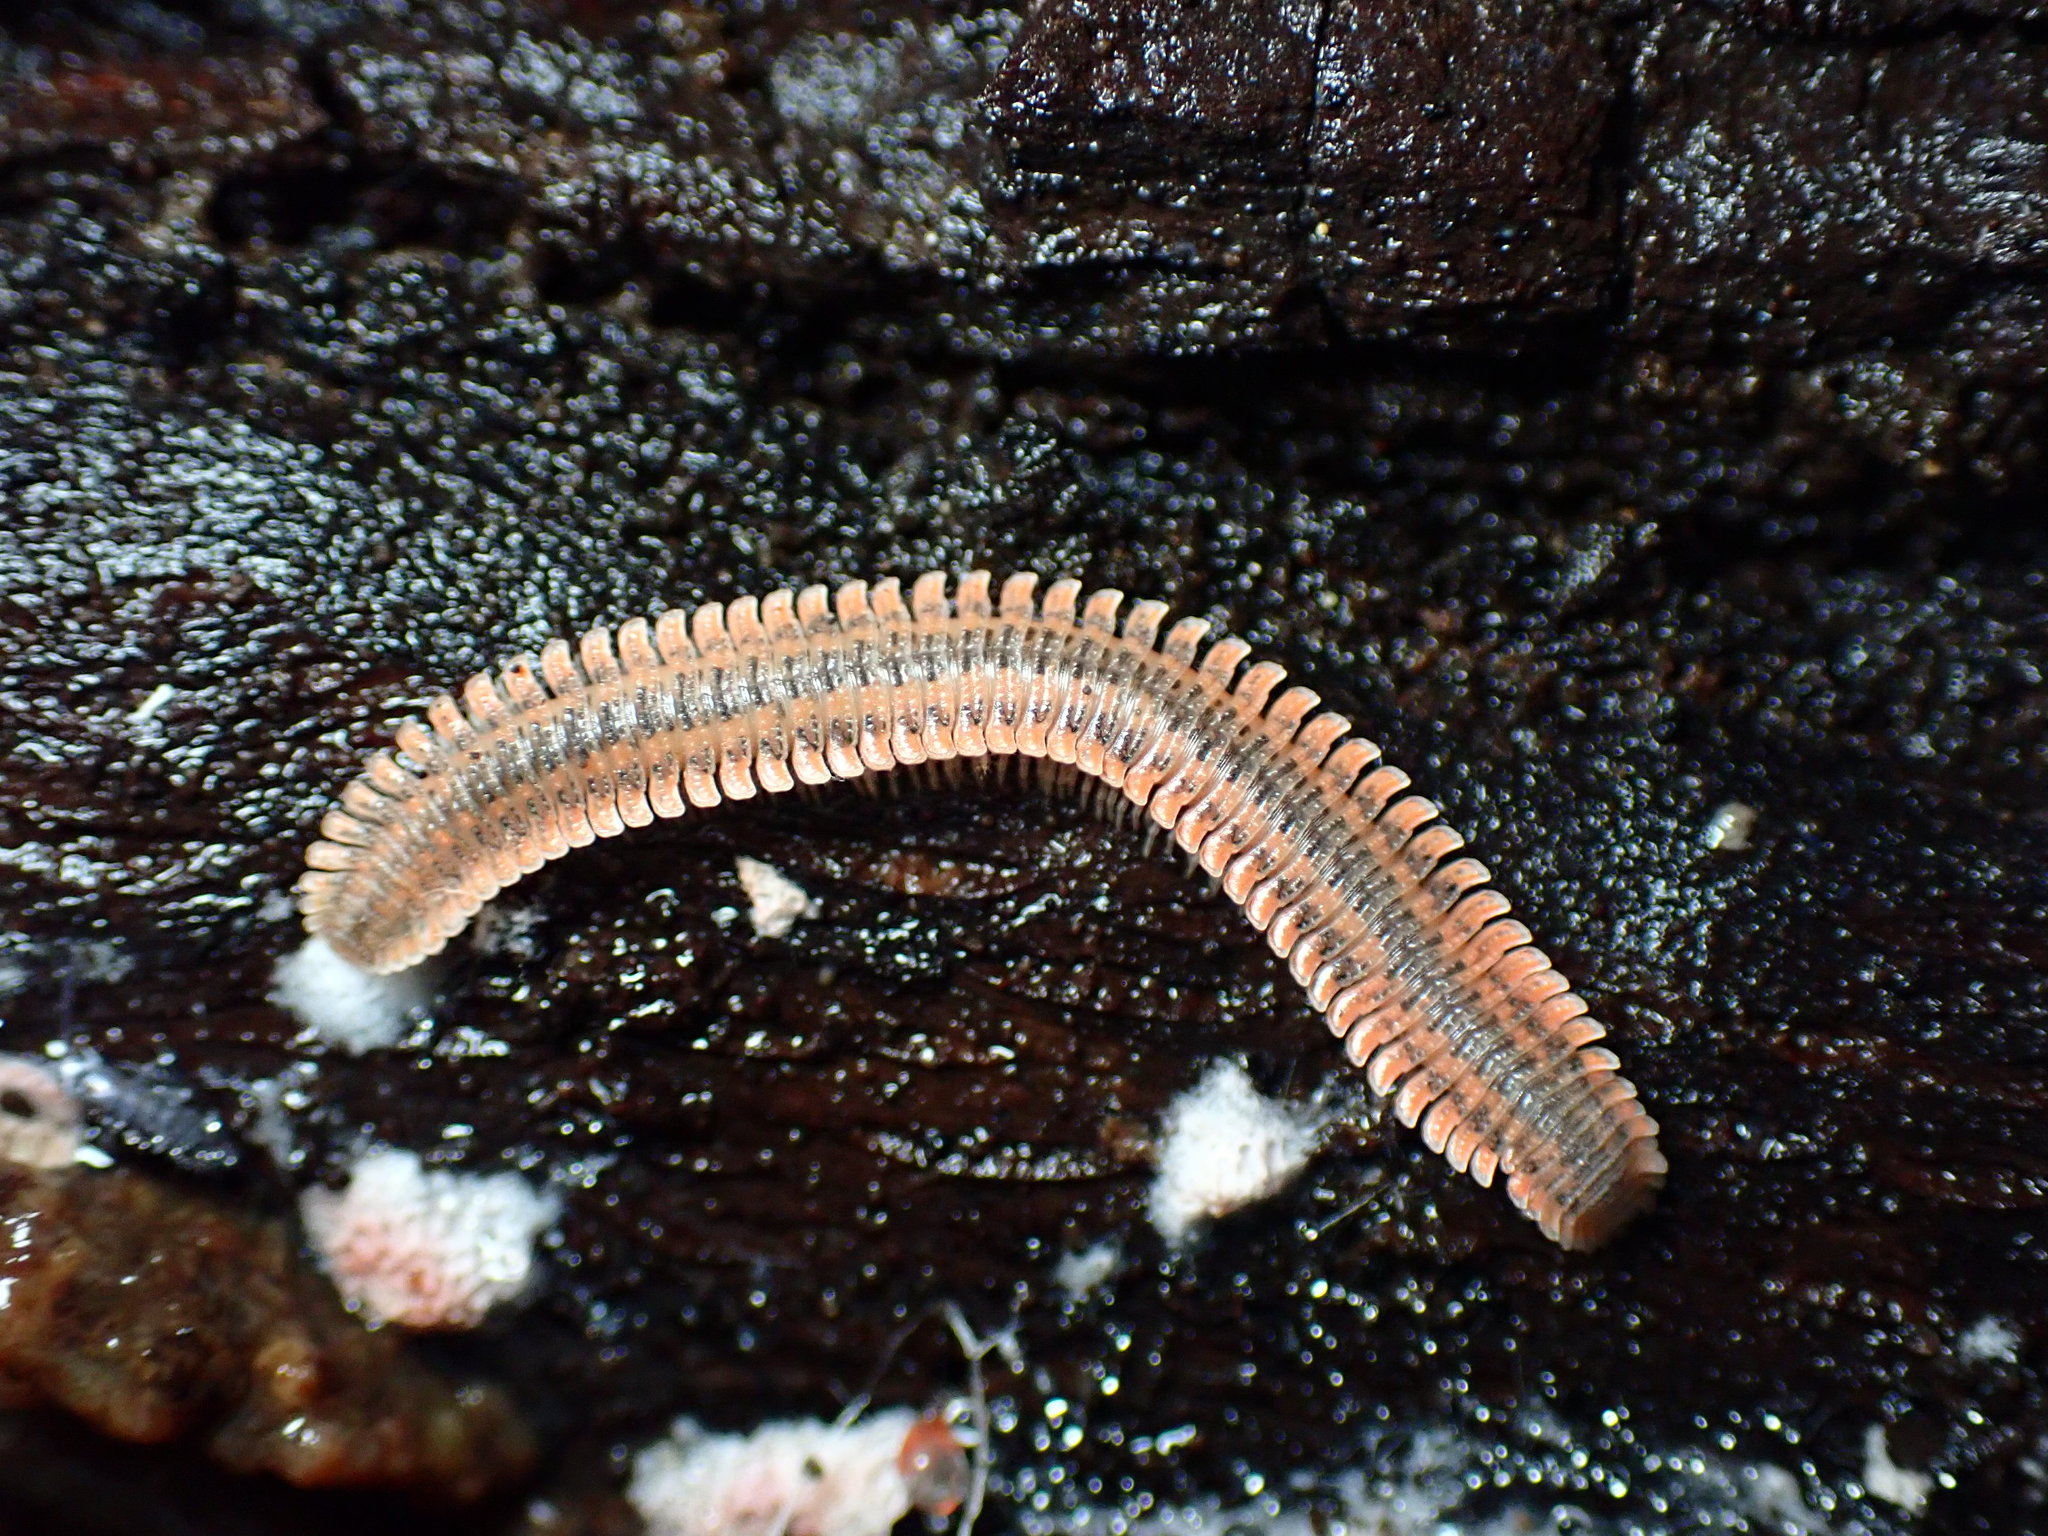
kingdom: Animalia
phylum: Arthropoda
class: Diplopoda
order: Platydesmida
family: Andrognathidae
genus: Brachycybe
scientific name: Brachycybe producta
